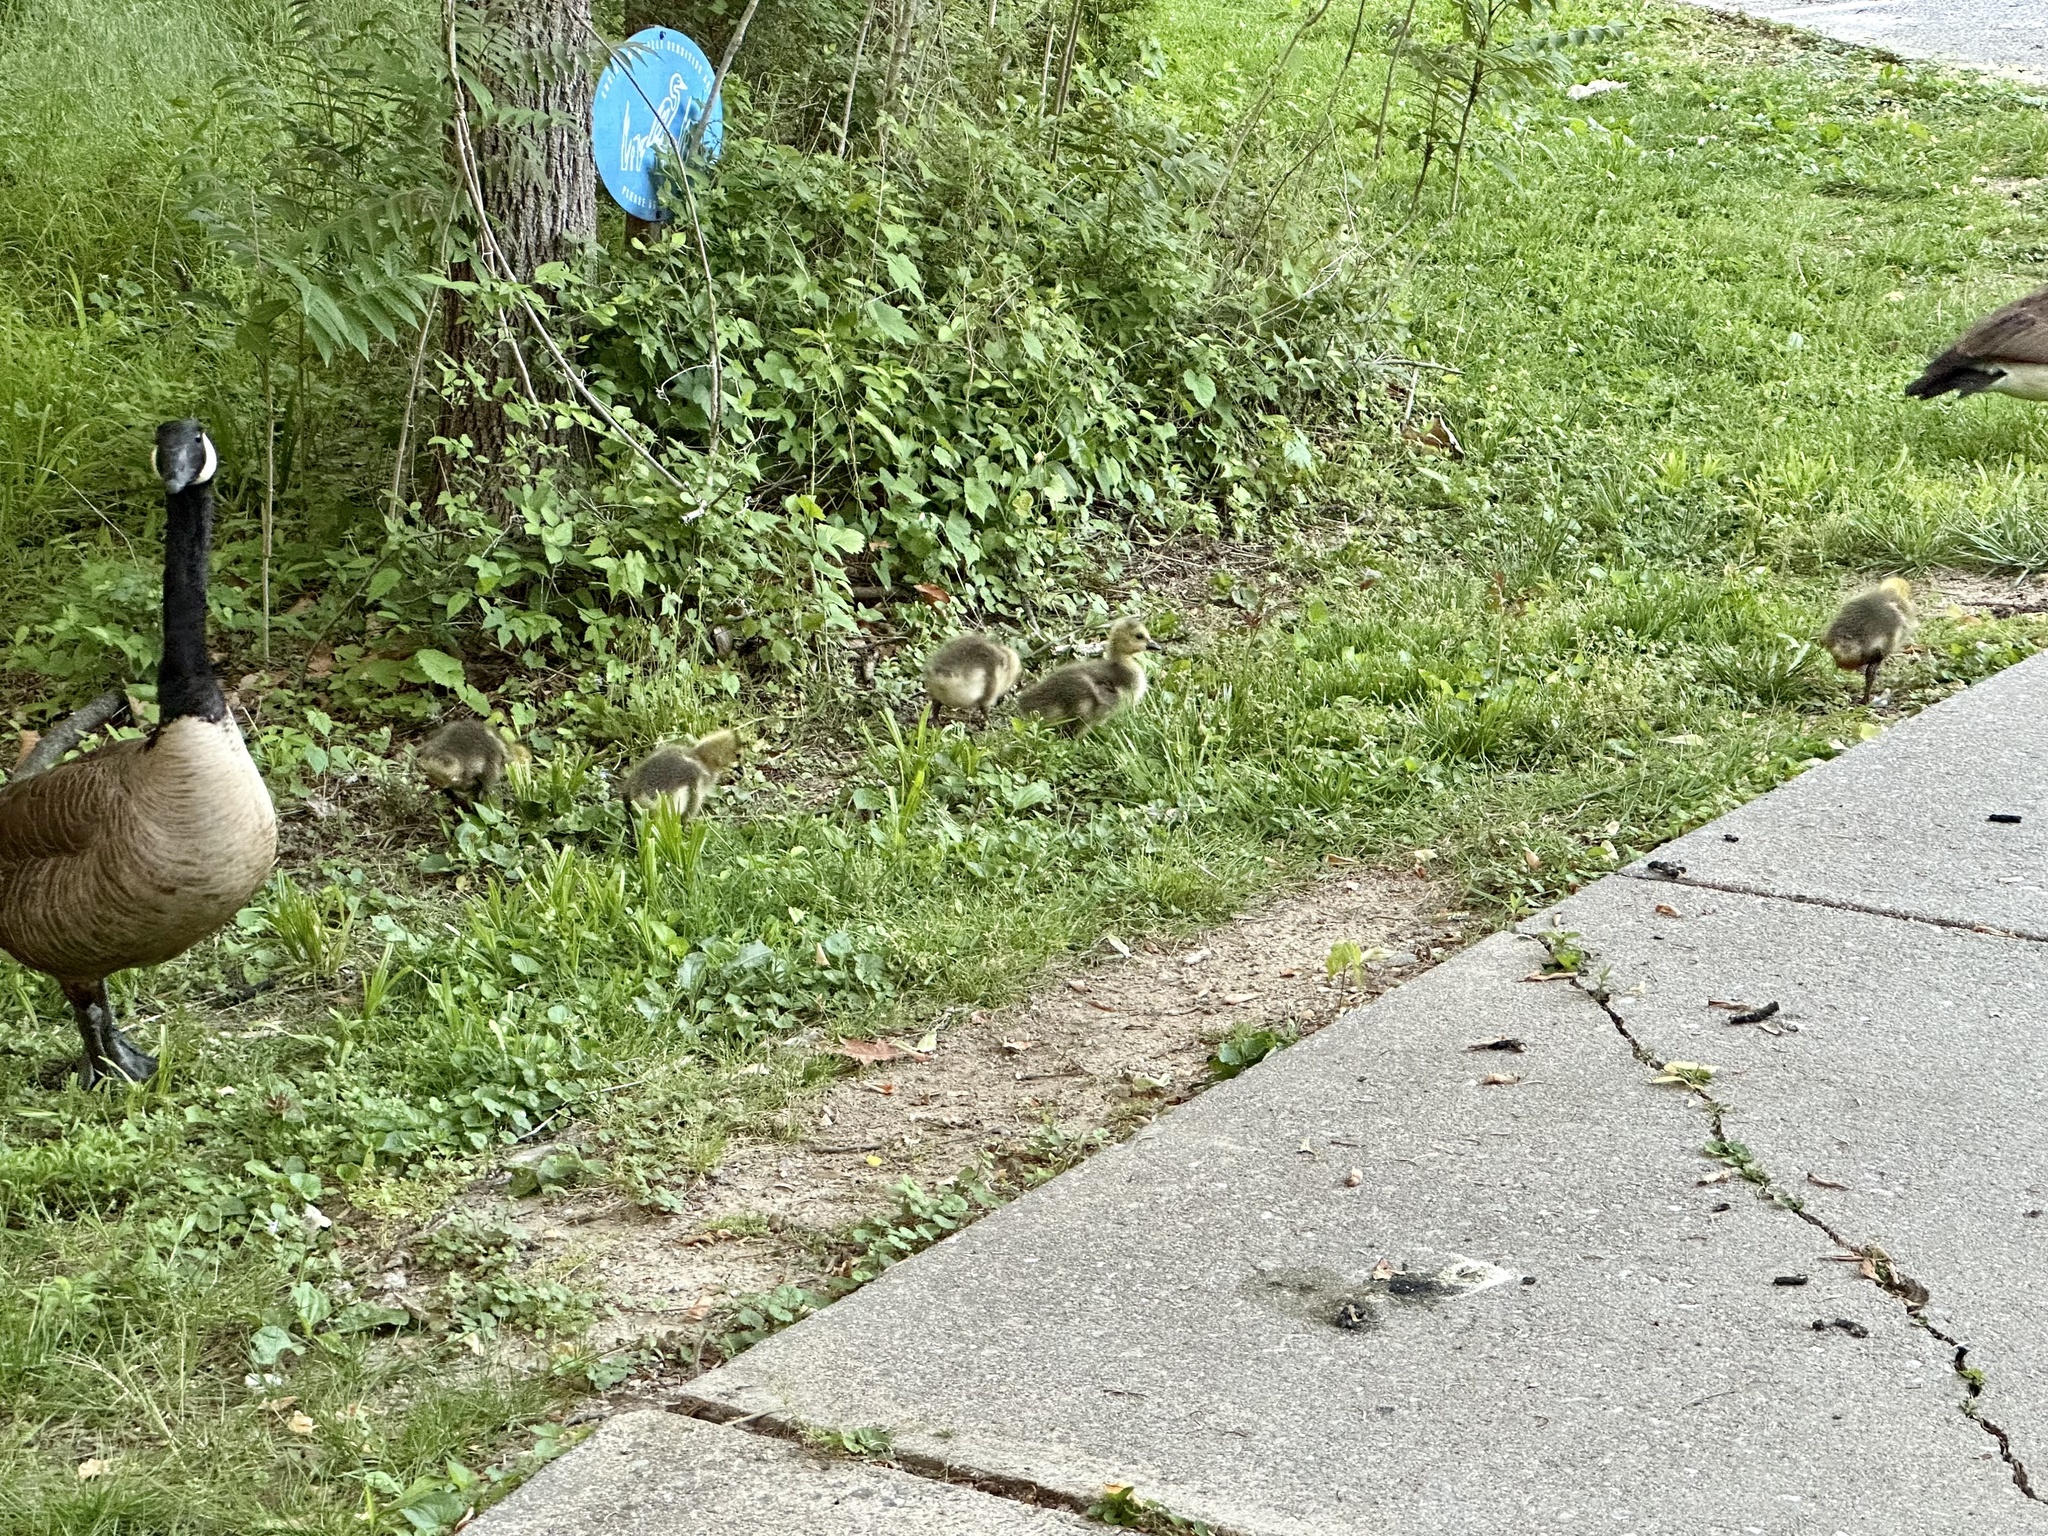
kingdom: Animalia
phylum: Chordata
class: Aves
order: Anseriformes
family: Anatidae
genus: Branta
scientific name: Branta canadensis
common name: Canada goose
